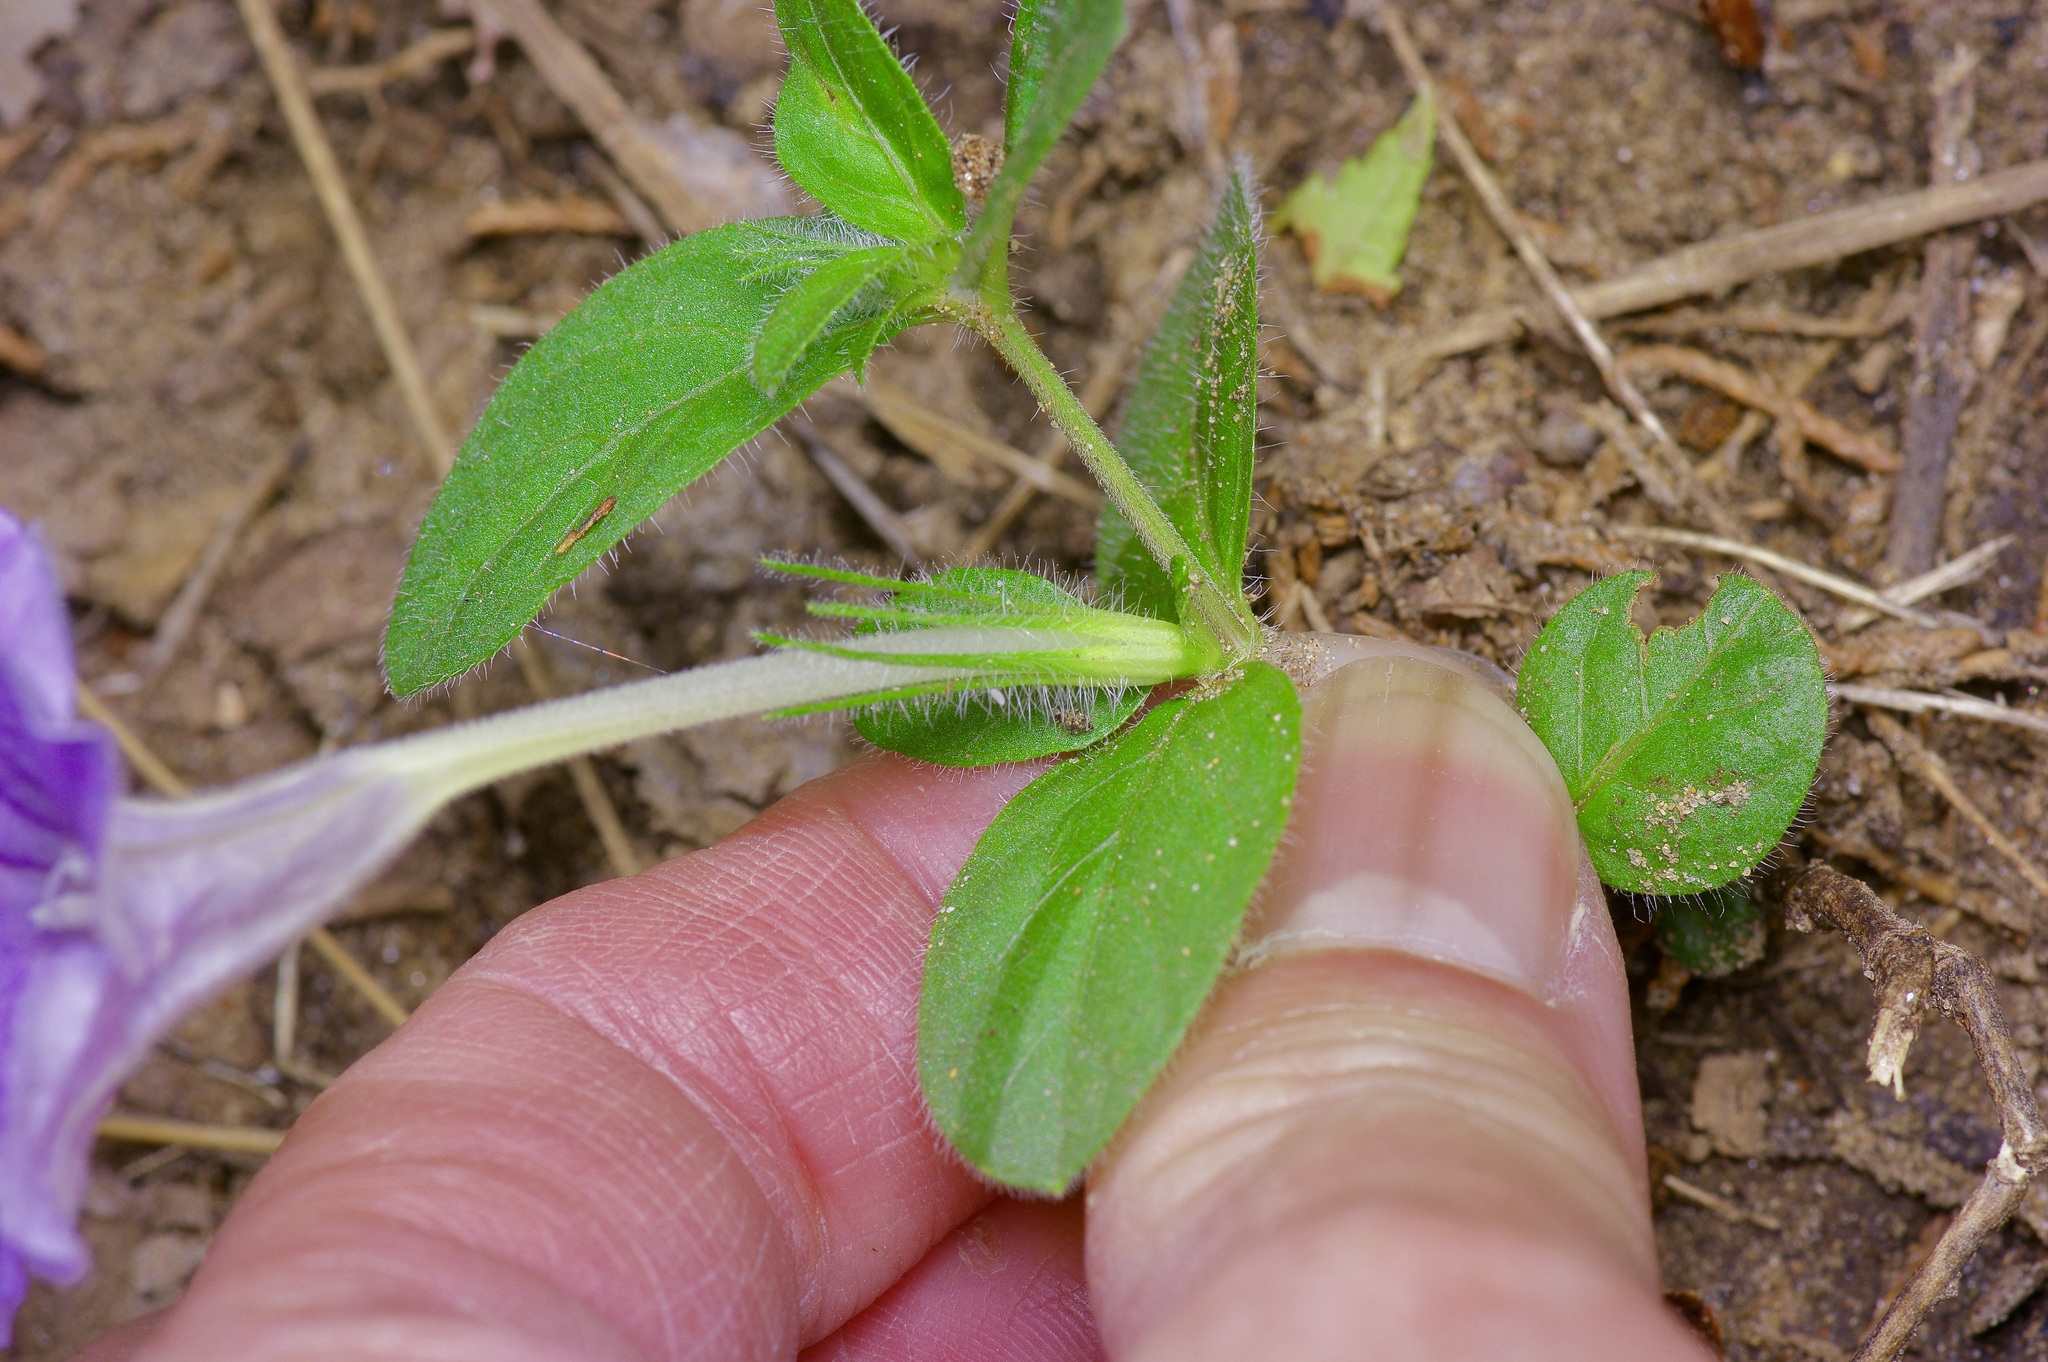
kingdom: Plantae
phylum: Tracheophyta
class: Magnoliopsida
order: Lamiales
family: Acanthaceae
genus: Ruellia
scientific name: Ruellia humilis
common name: Fringe-leaf ruellia
